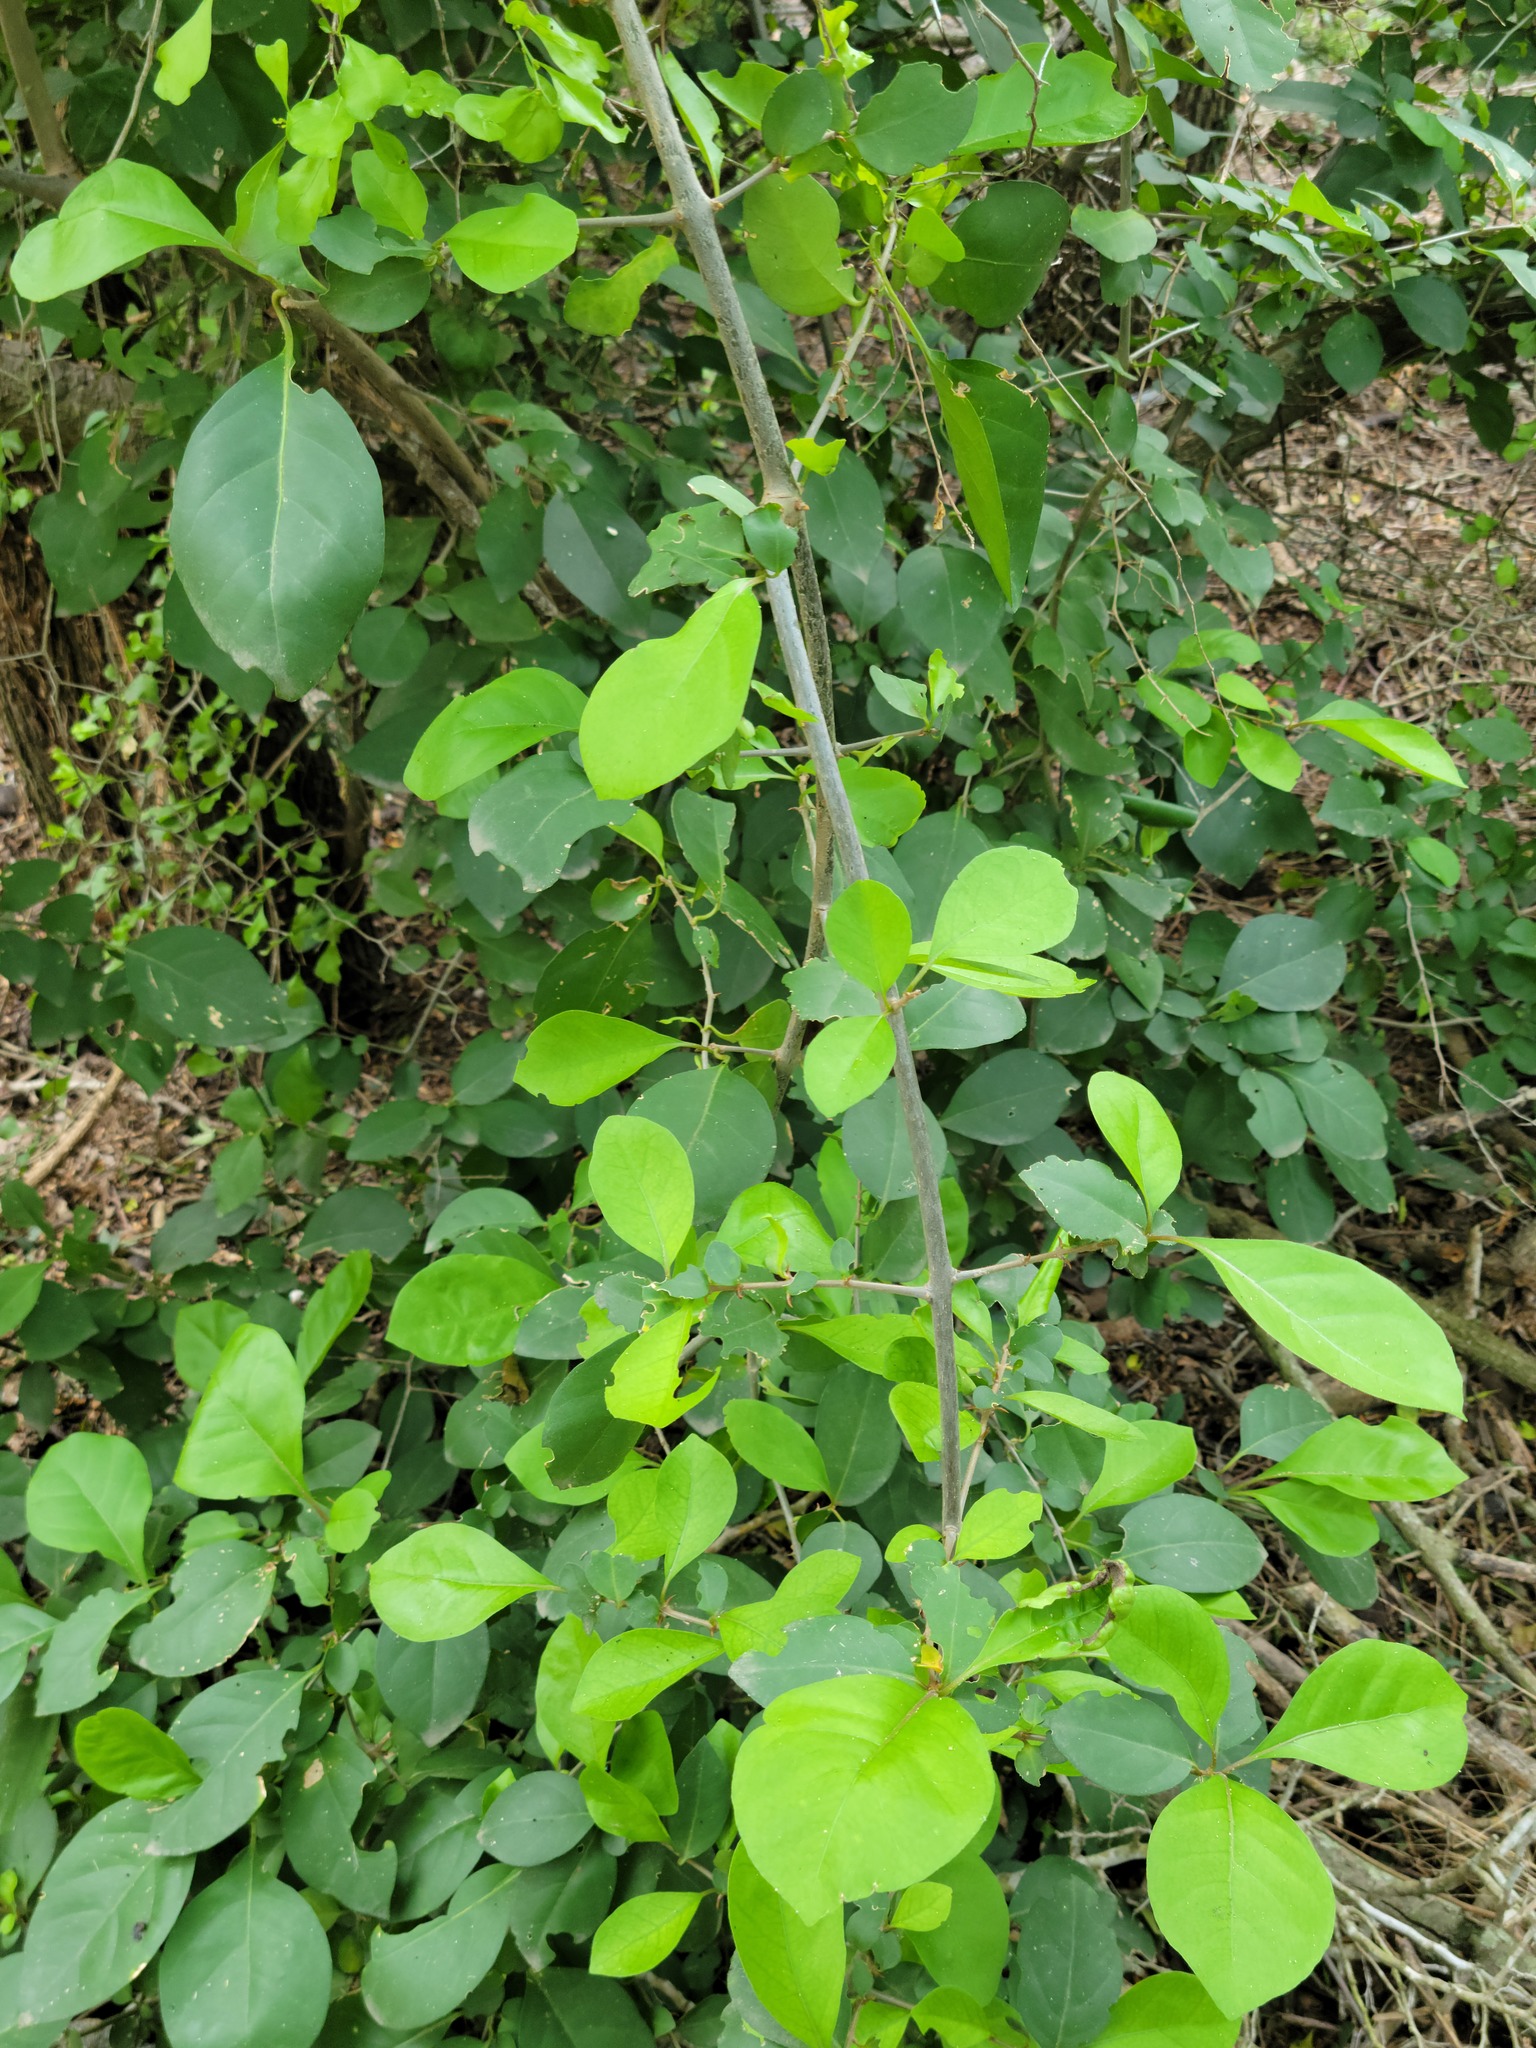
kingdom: Plantae
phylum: Tracheophyta
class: Magnoliopsida
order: Caryophyllales
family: Nyctaginaceae
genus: Pisonia
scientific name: Pisonia aculeata
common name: Cockspur vine
